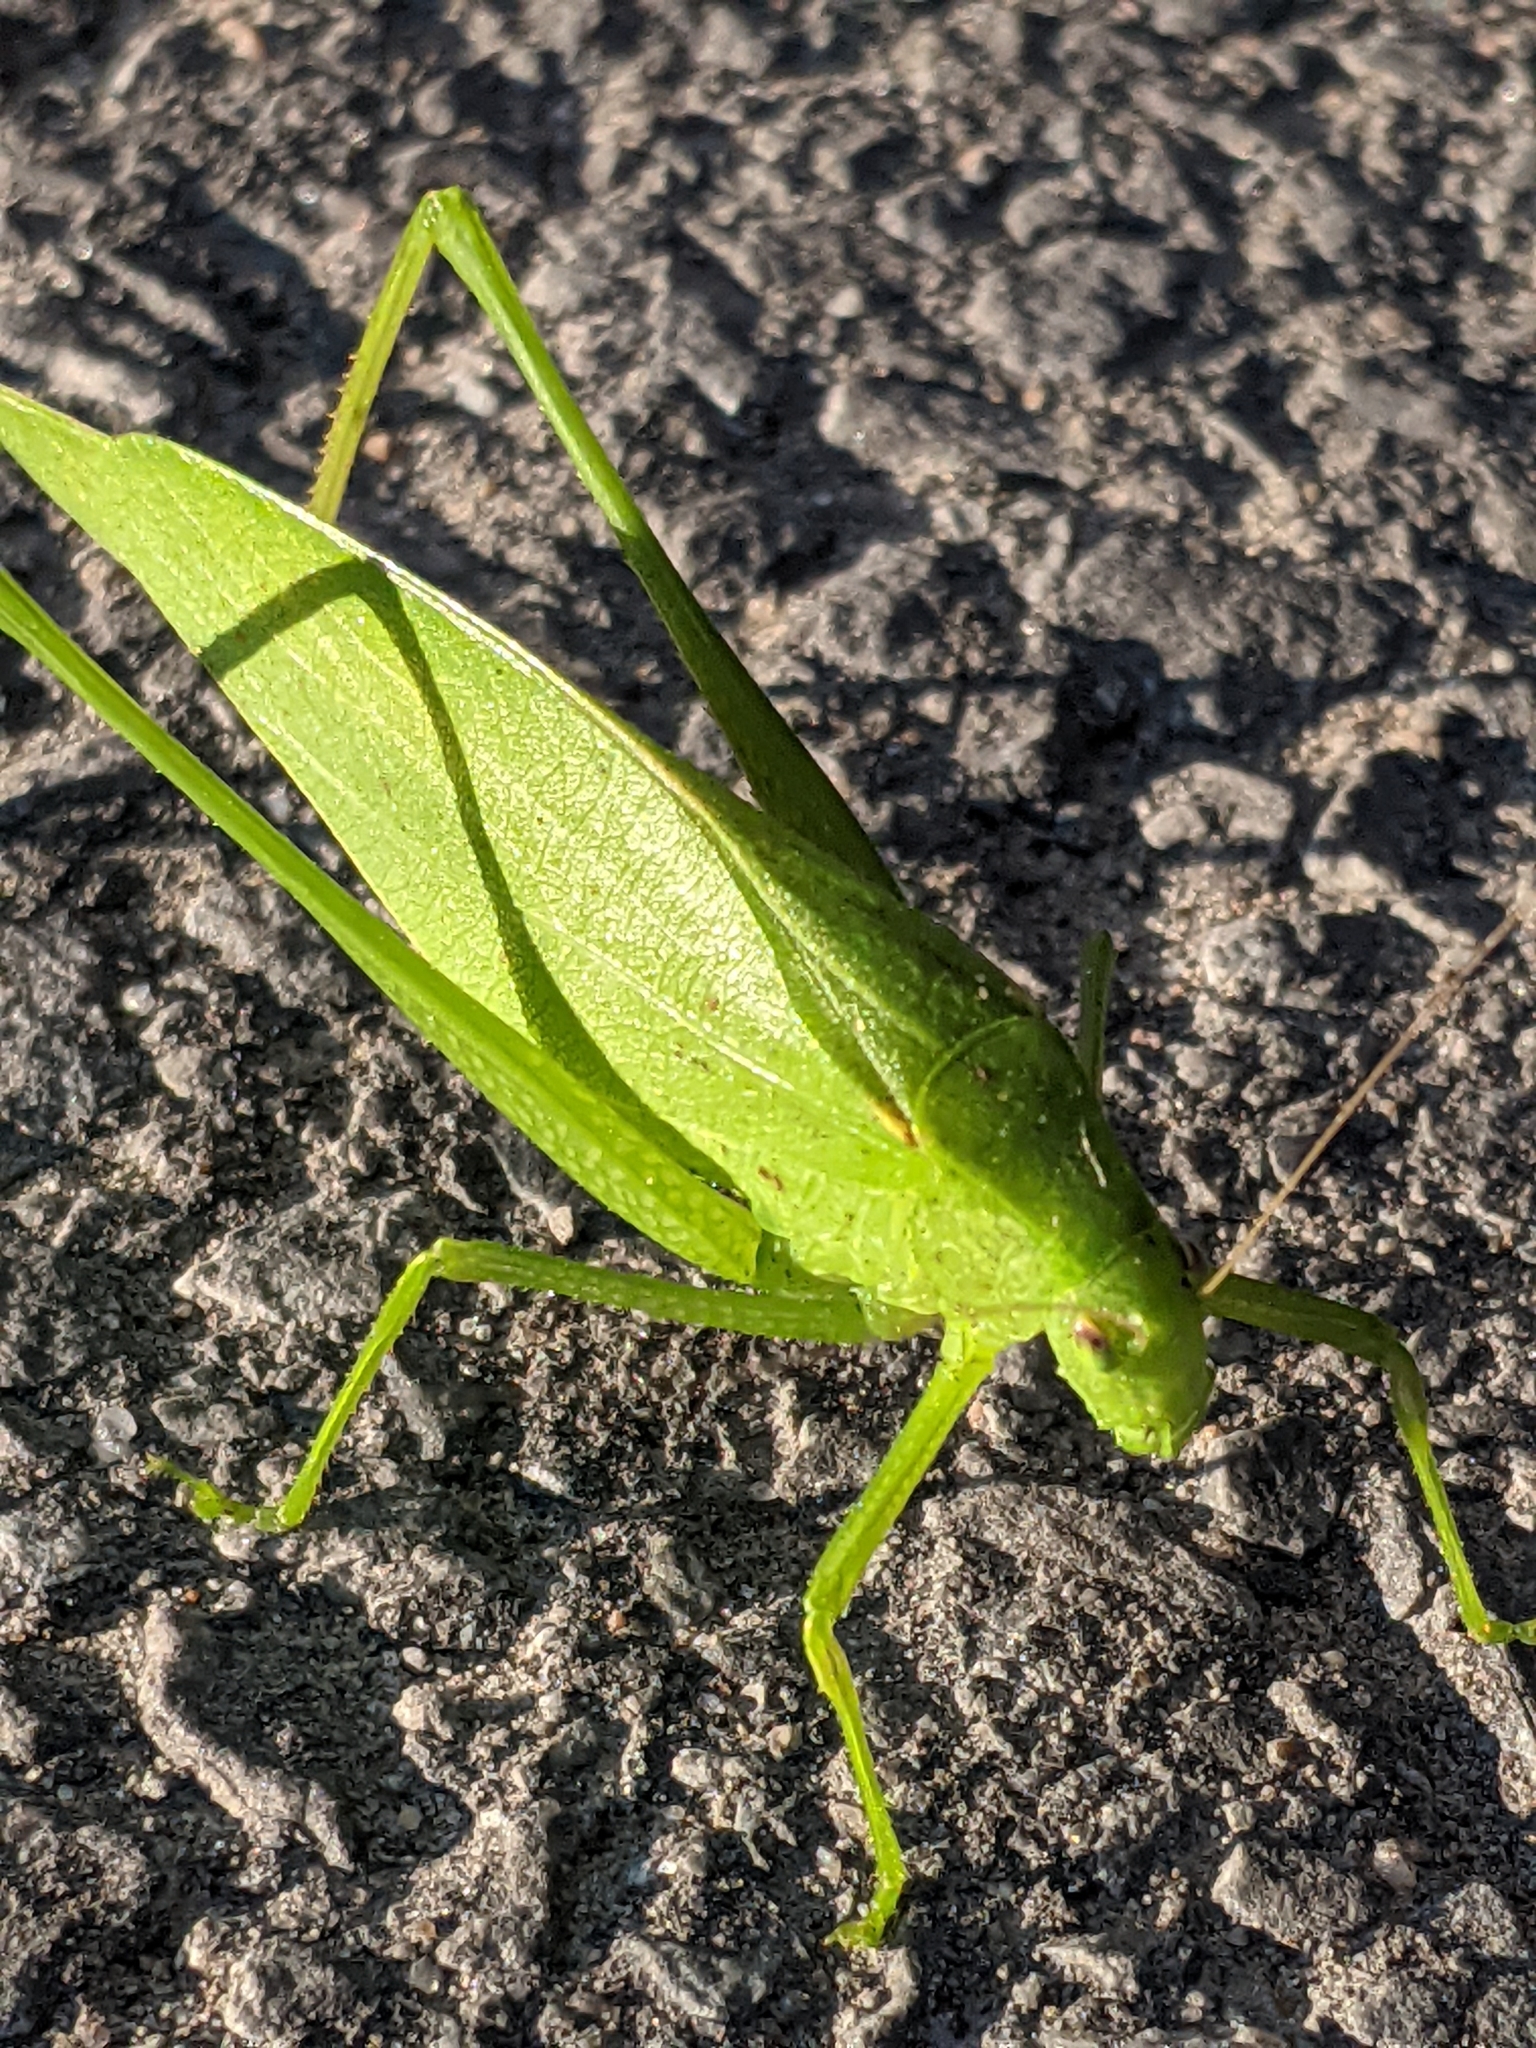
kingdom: Animalia
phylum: Arthropoda
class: Insecta
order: Orthoptera
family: Tettigoniidae
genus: Amblycorypha
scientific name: Amblycorypha oblongifolia
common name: Oblong-winged katydid
